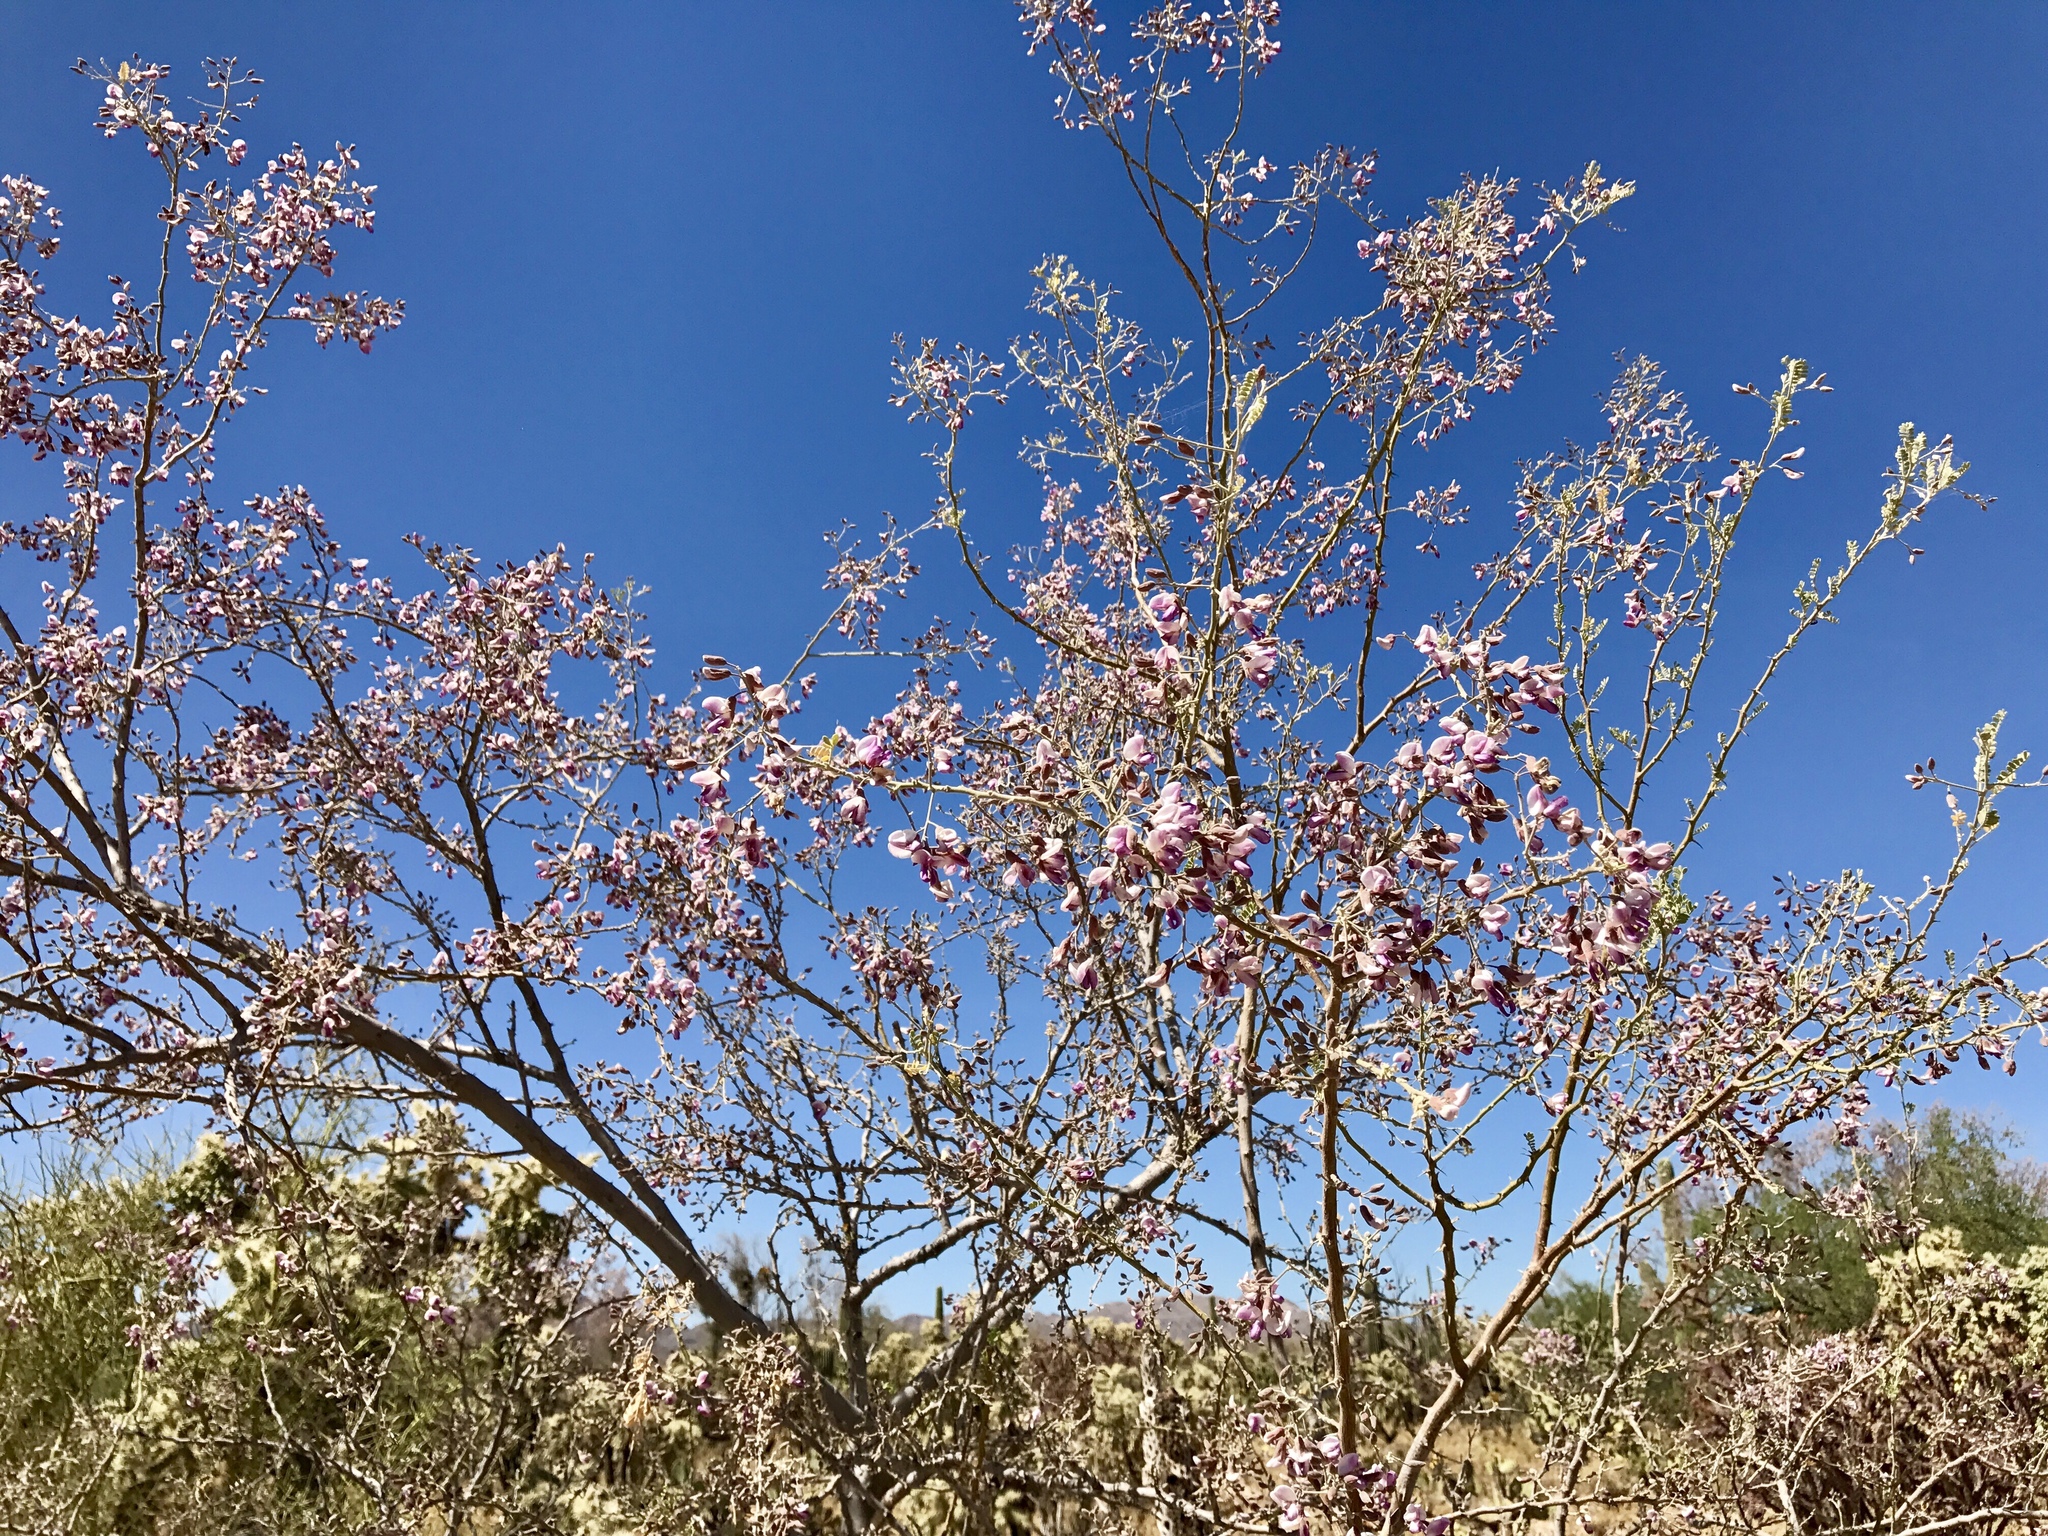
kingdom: Plantae
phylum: Tracheophyta
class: Magnoliopsida
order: Fabales
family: Fabaceae
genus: Olneya
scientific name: Olneya tesota
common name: Desert ironwood
